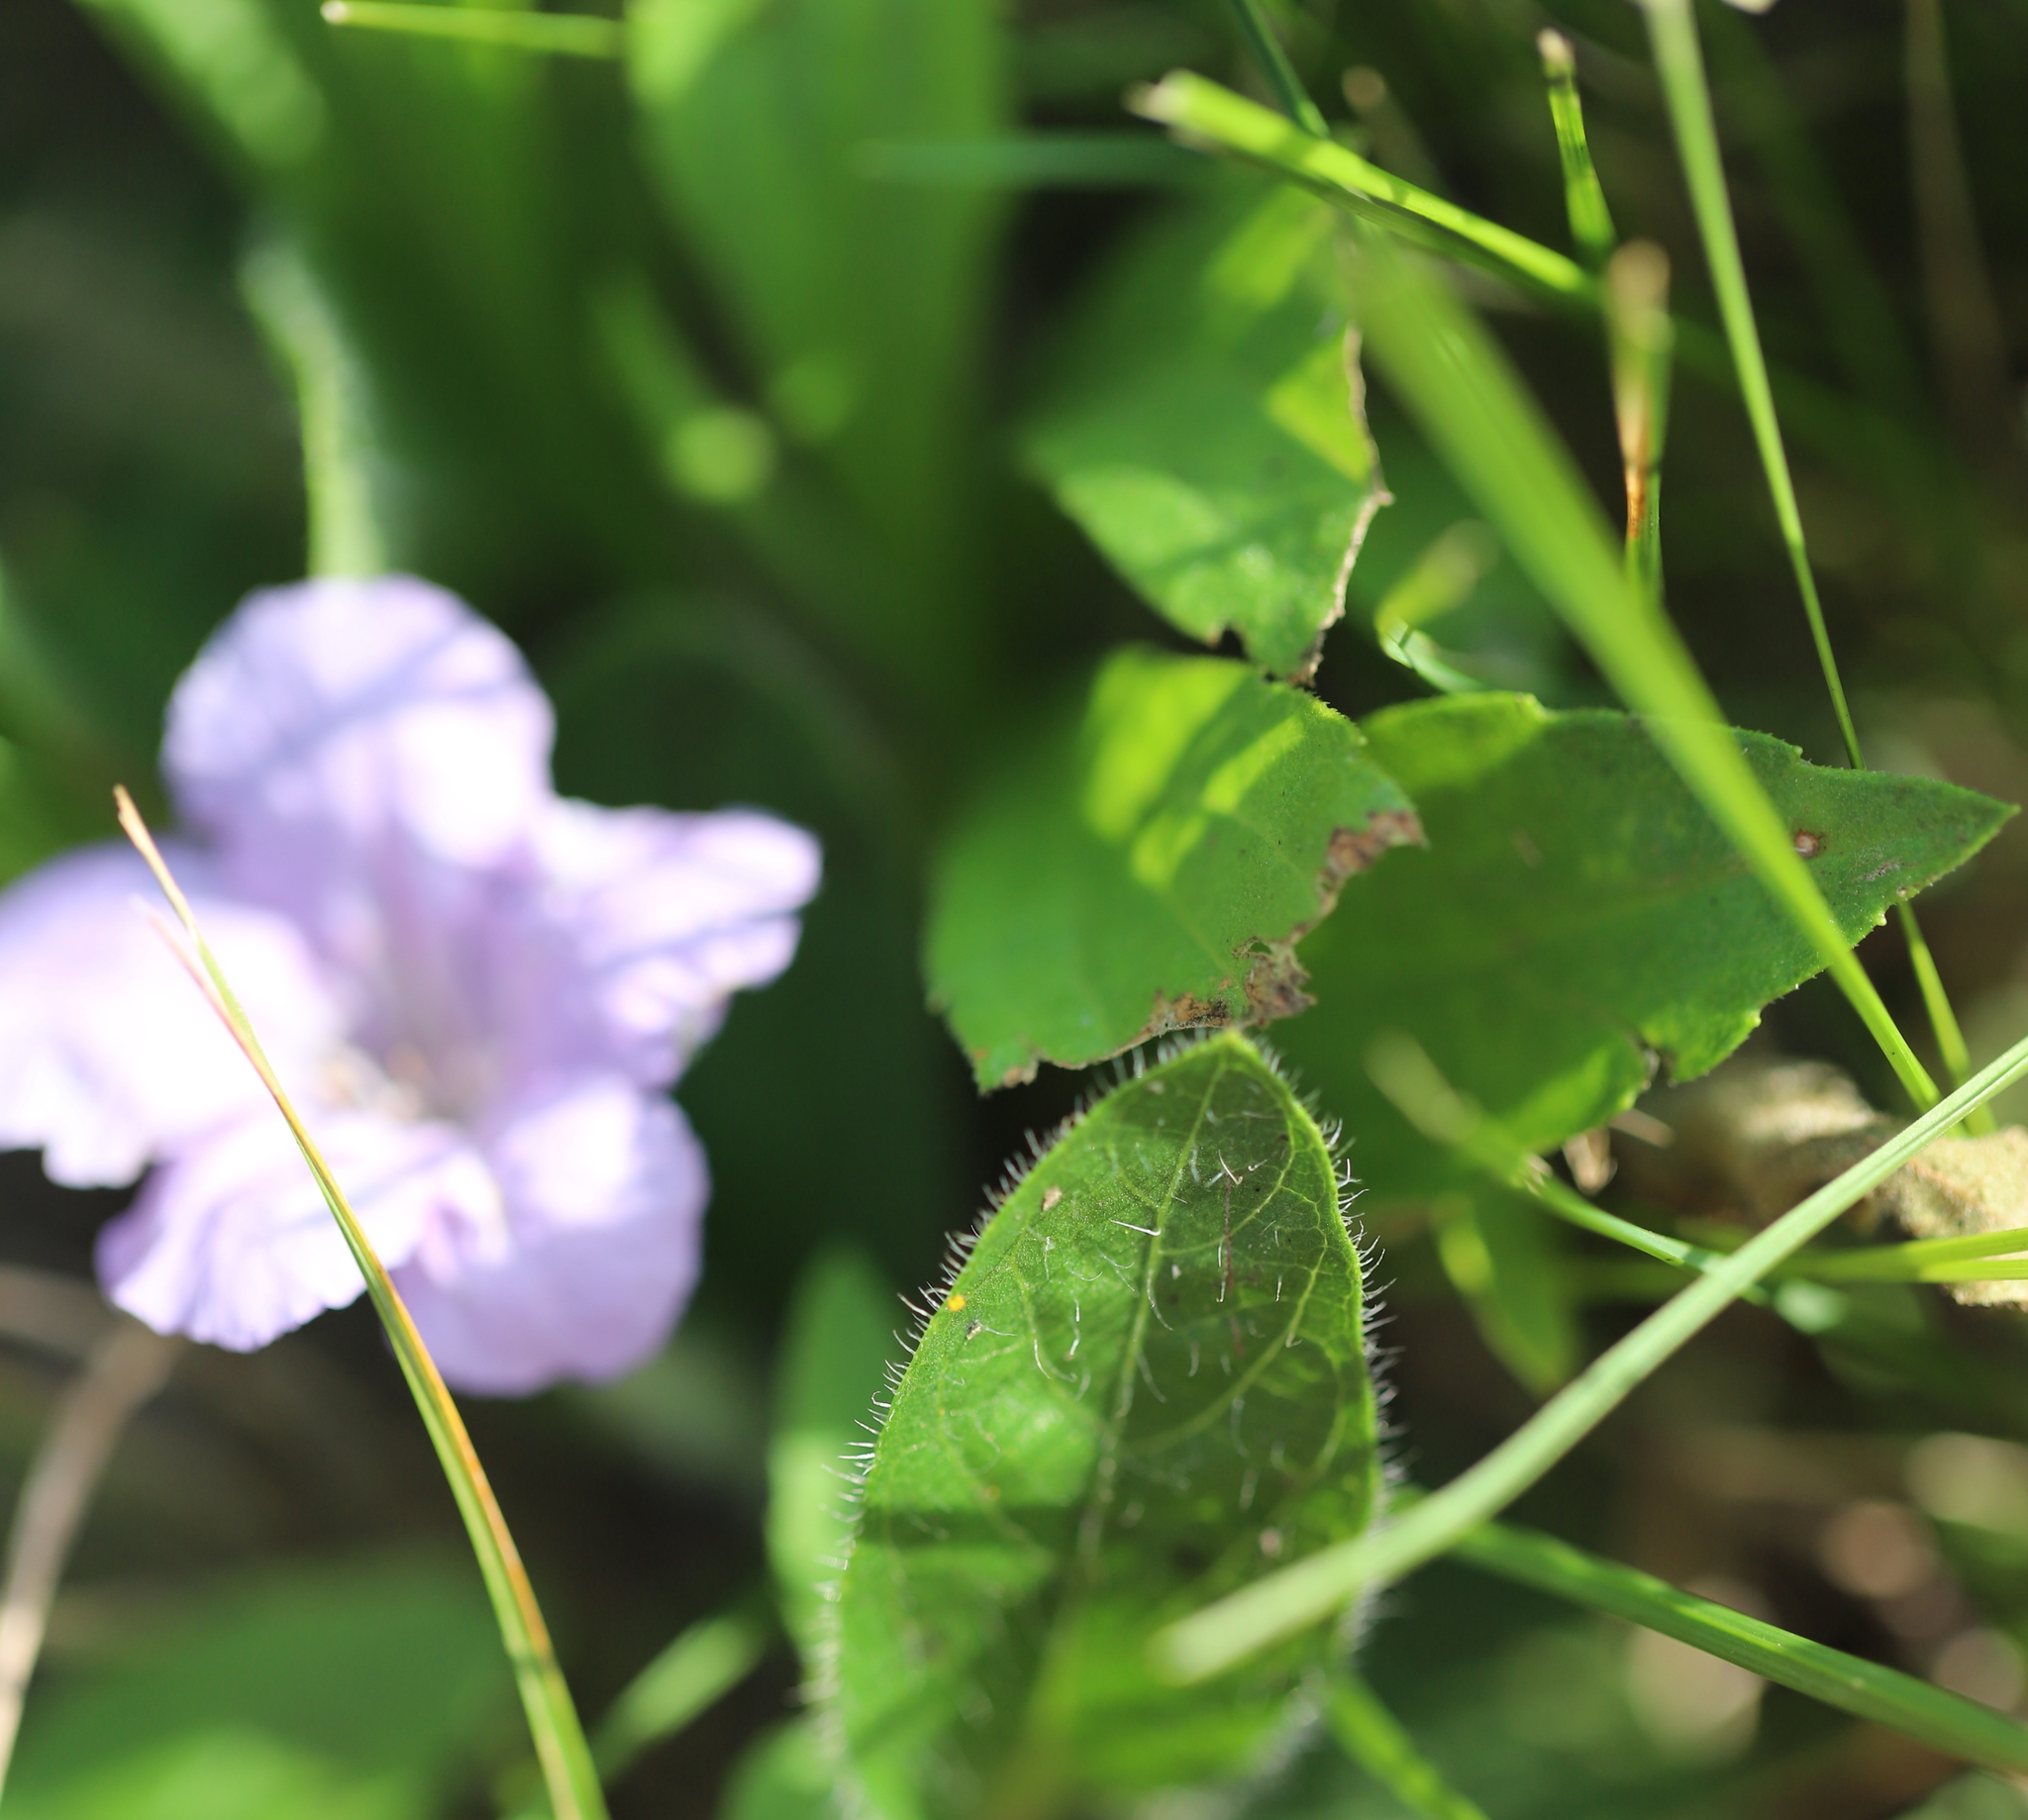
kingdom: Plantae
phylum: Tracheophyta
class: Magnoliopsida
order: Lamiales
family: Acanthaceae
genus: Ruellia
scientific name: Ruellia humilis
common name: Fringe-leaf ruellia
